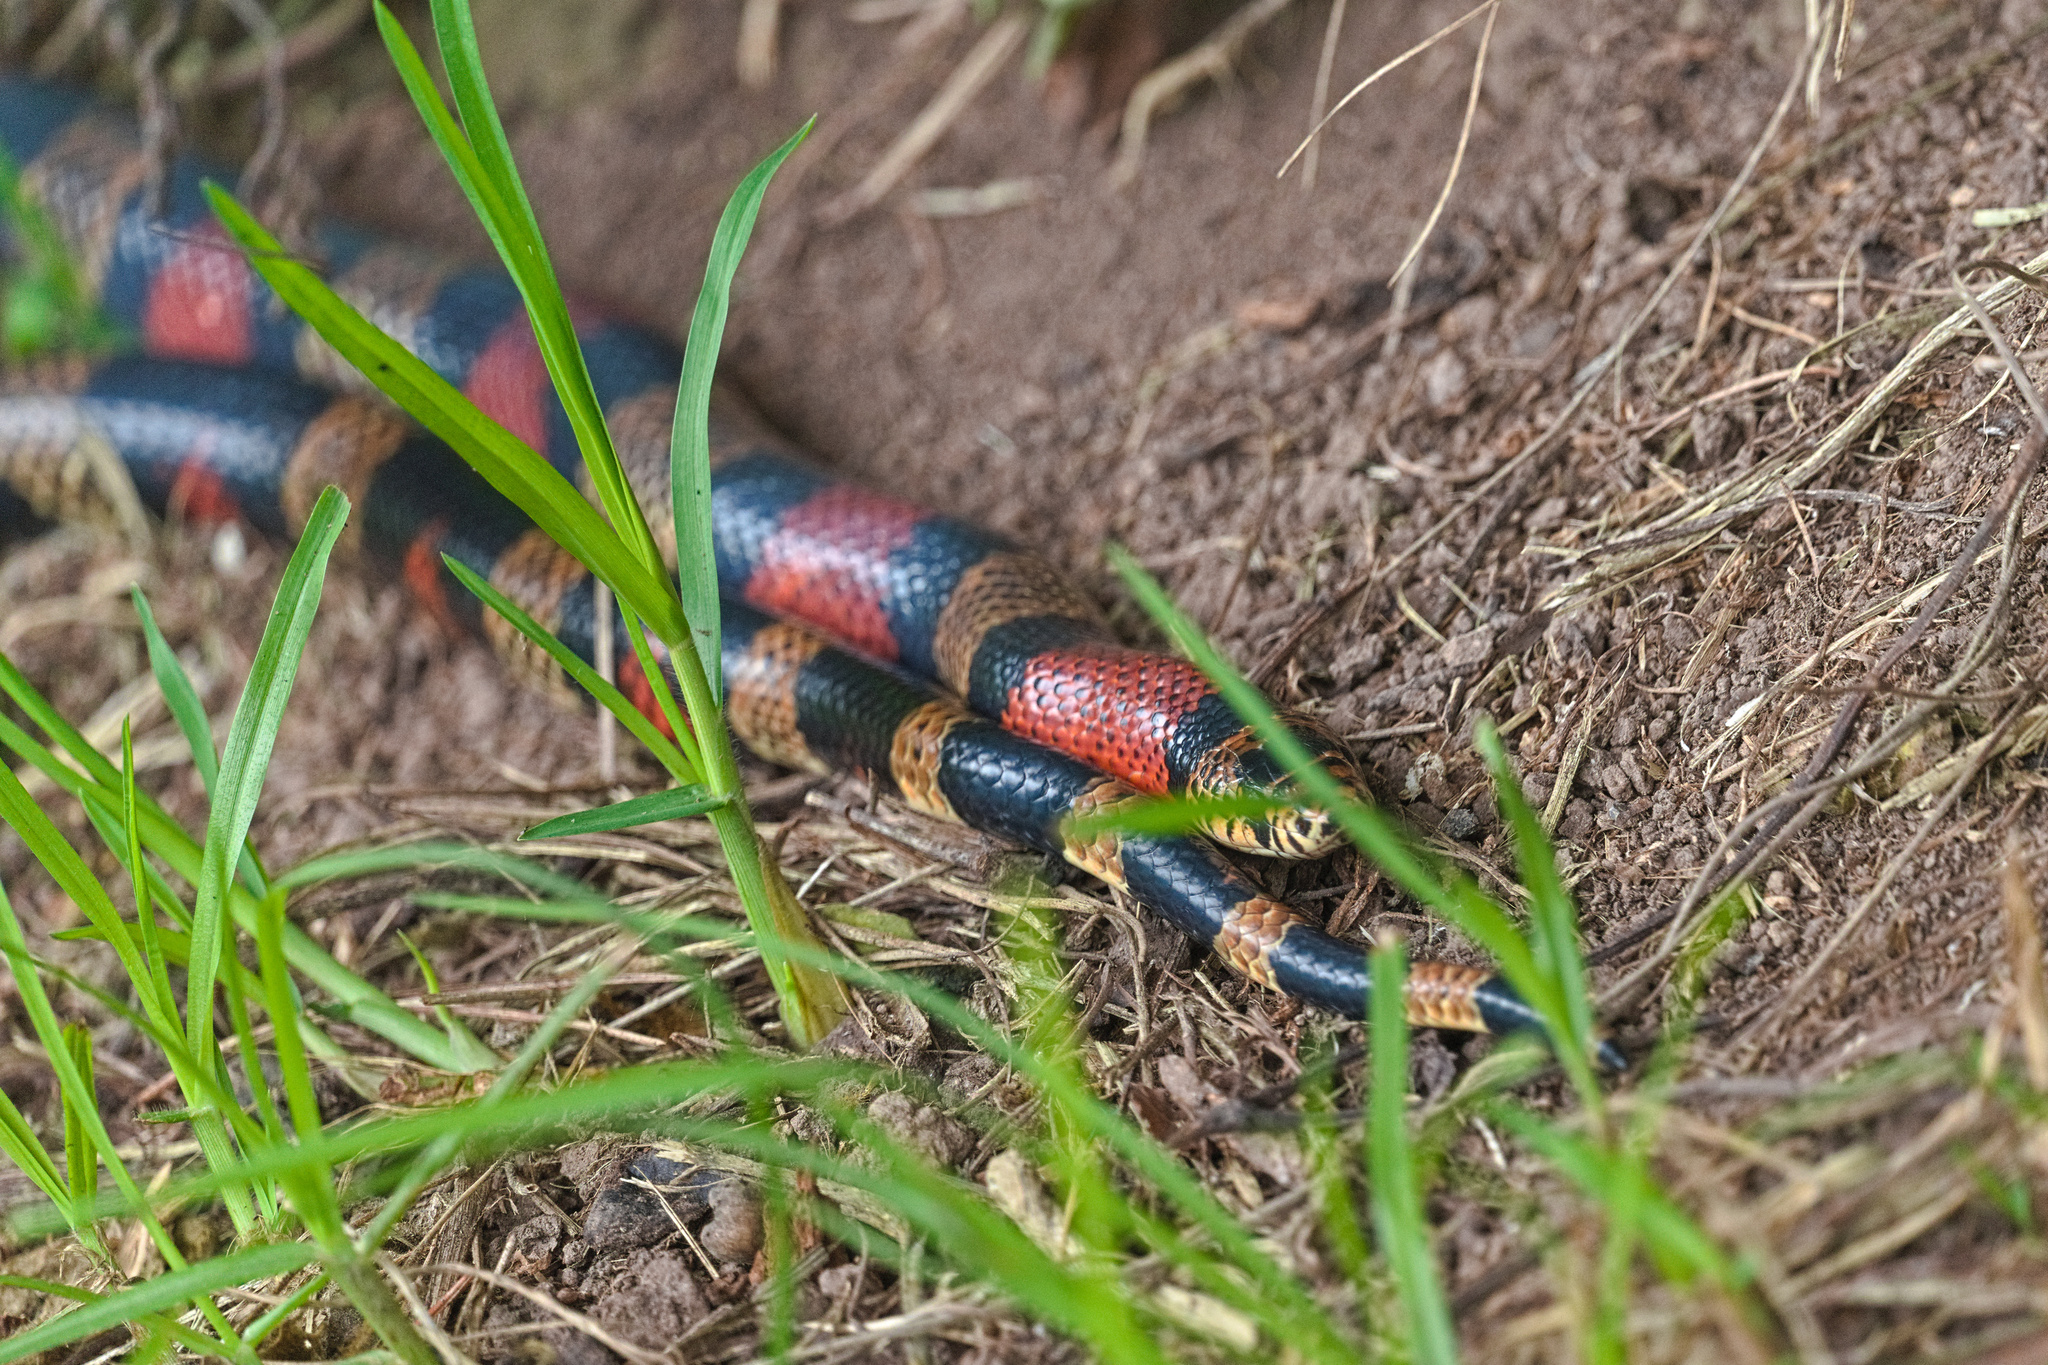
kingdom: Animalia
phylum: Chordata
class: Squamata
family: Colubridae
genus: Lampropeltis
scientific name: Lampropeltis micropholis
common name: Ecuadorian milksnake
